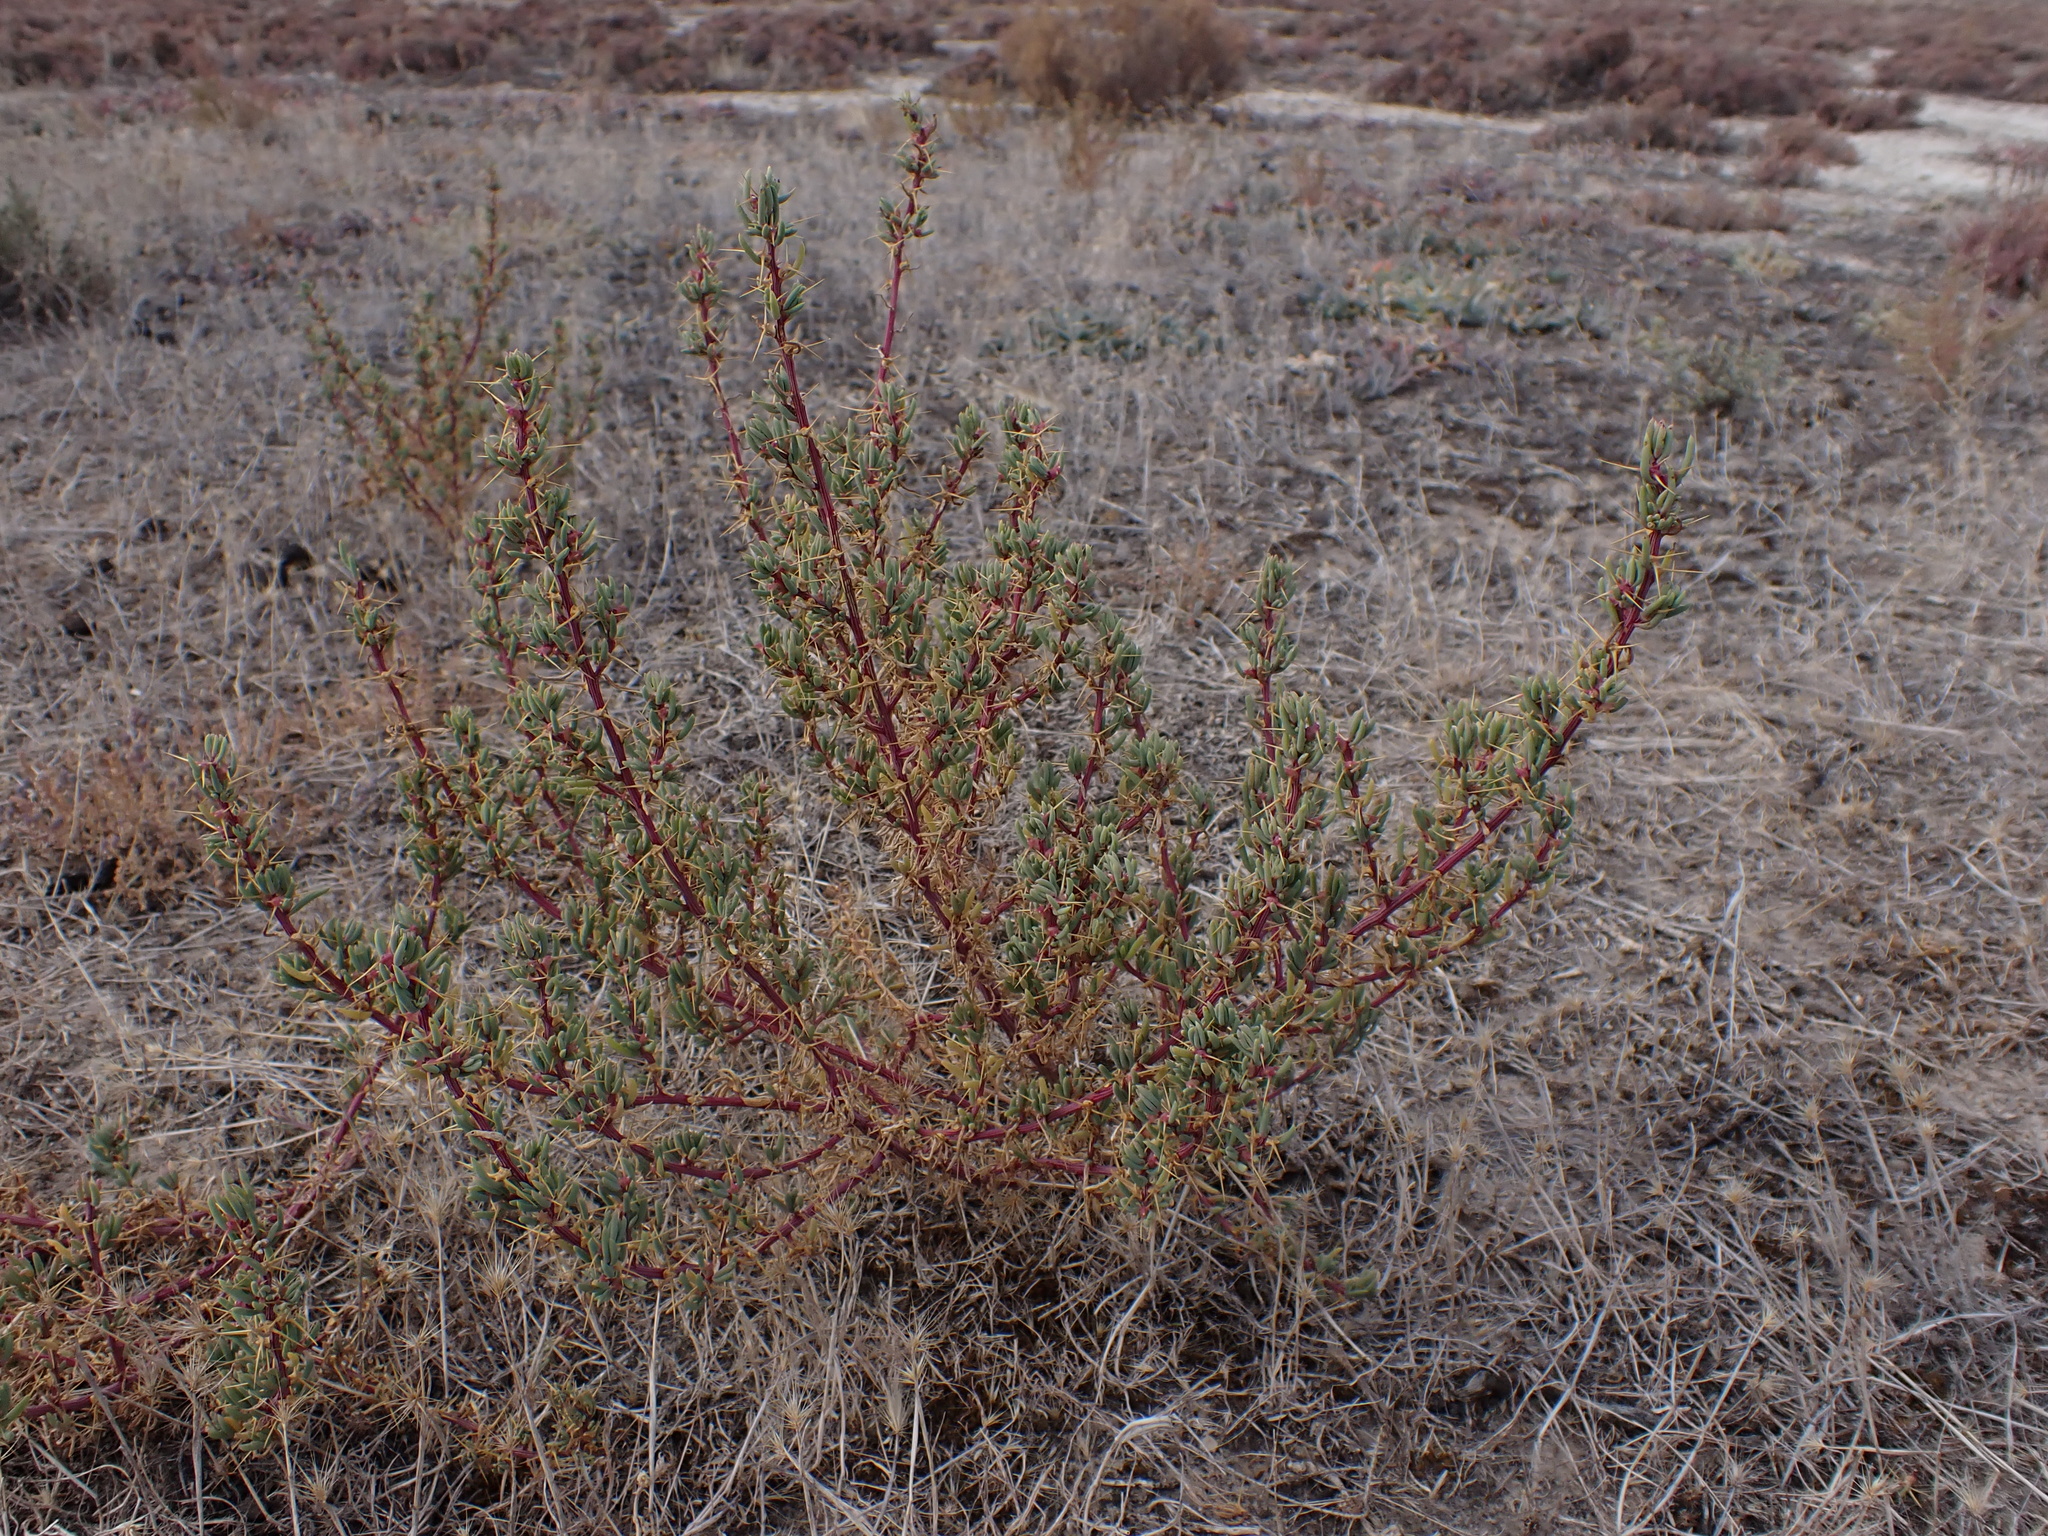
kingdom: Plantae
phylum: Tracheophyta
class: Magnoliopsida
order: Caryophyllales
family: Amaranthaceae
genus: Sclerolaena
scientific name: Sclerolaena tricuspis
